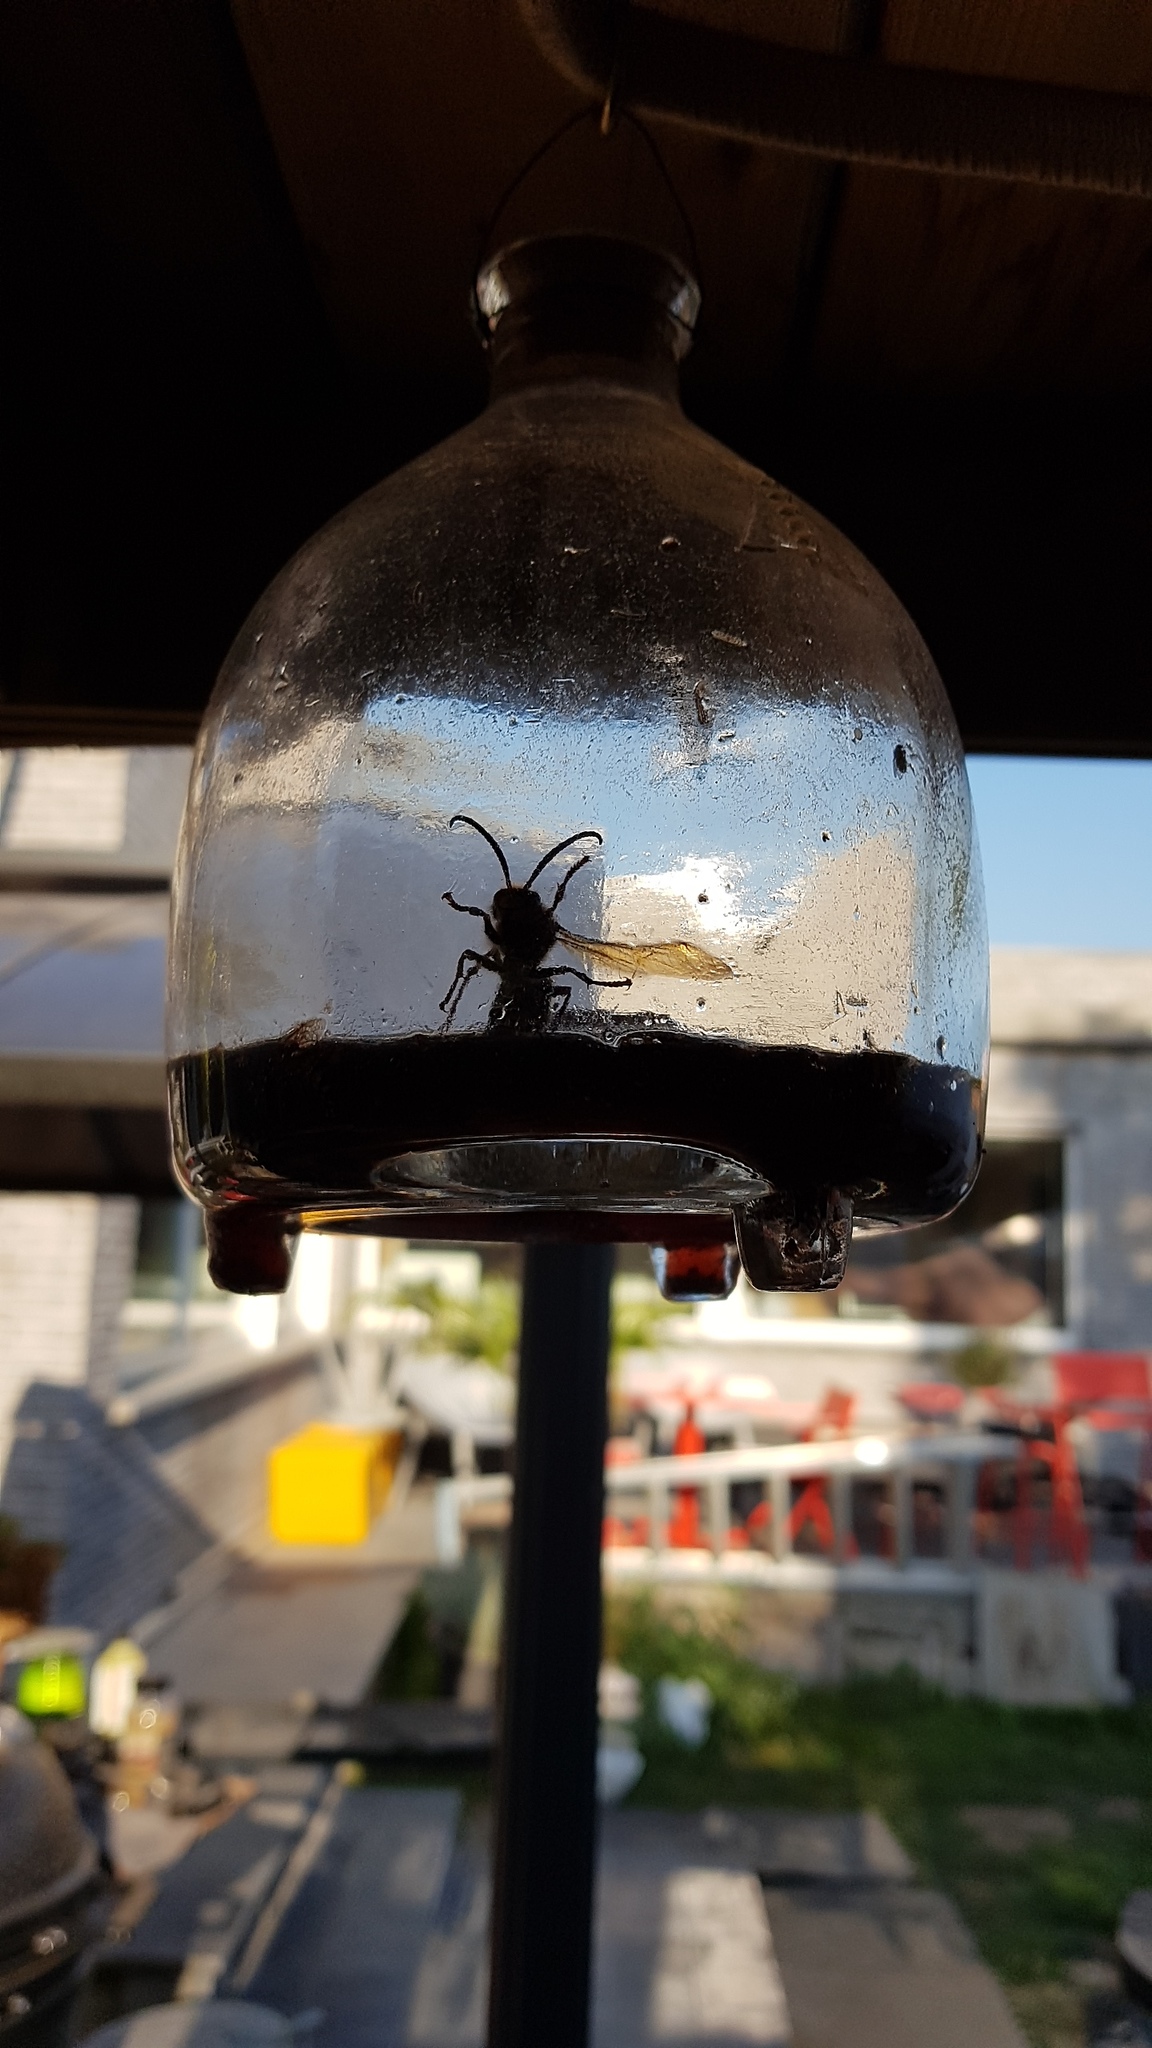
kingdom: Animalia
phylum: Arthropoda
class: Insecta
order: Hymenoptera
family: Vespidae
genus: Vespa
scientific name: Vespa crabro
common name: Hornet
